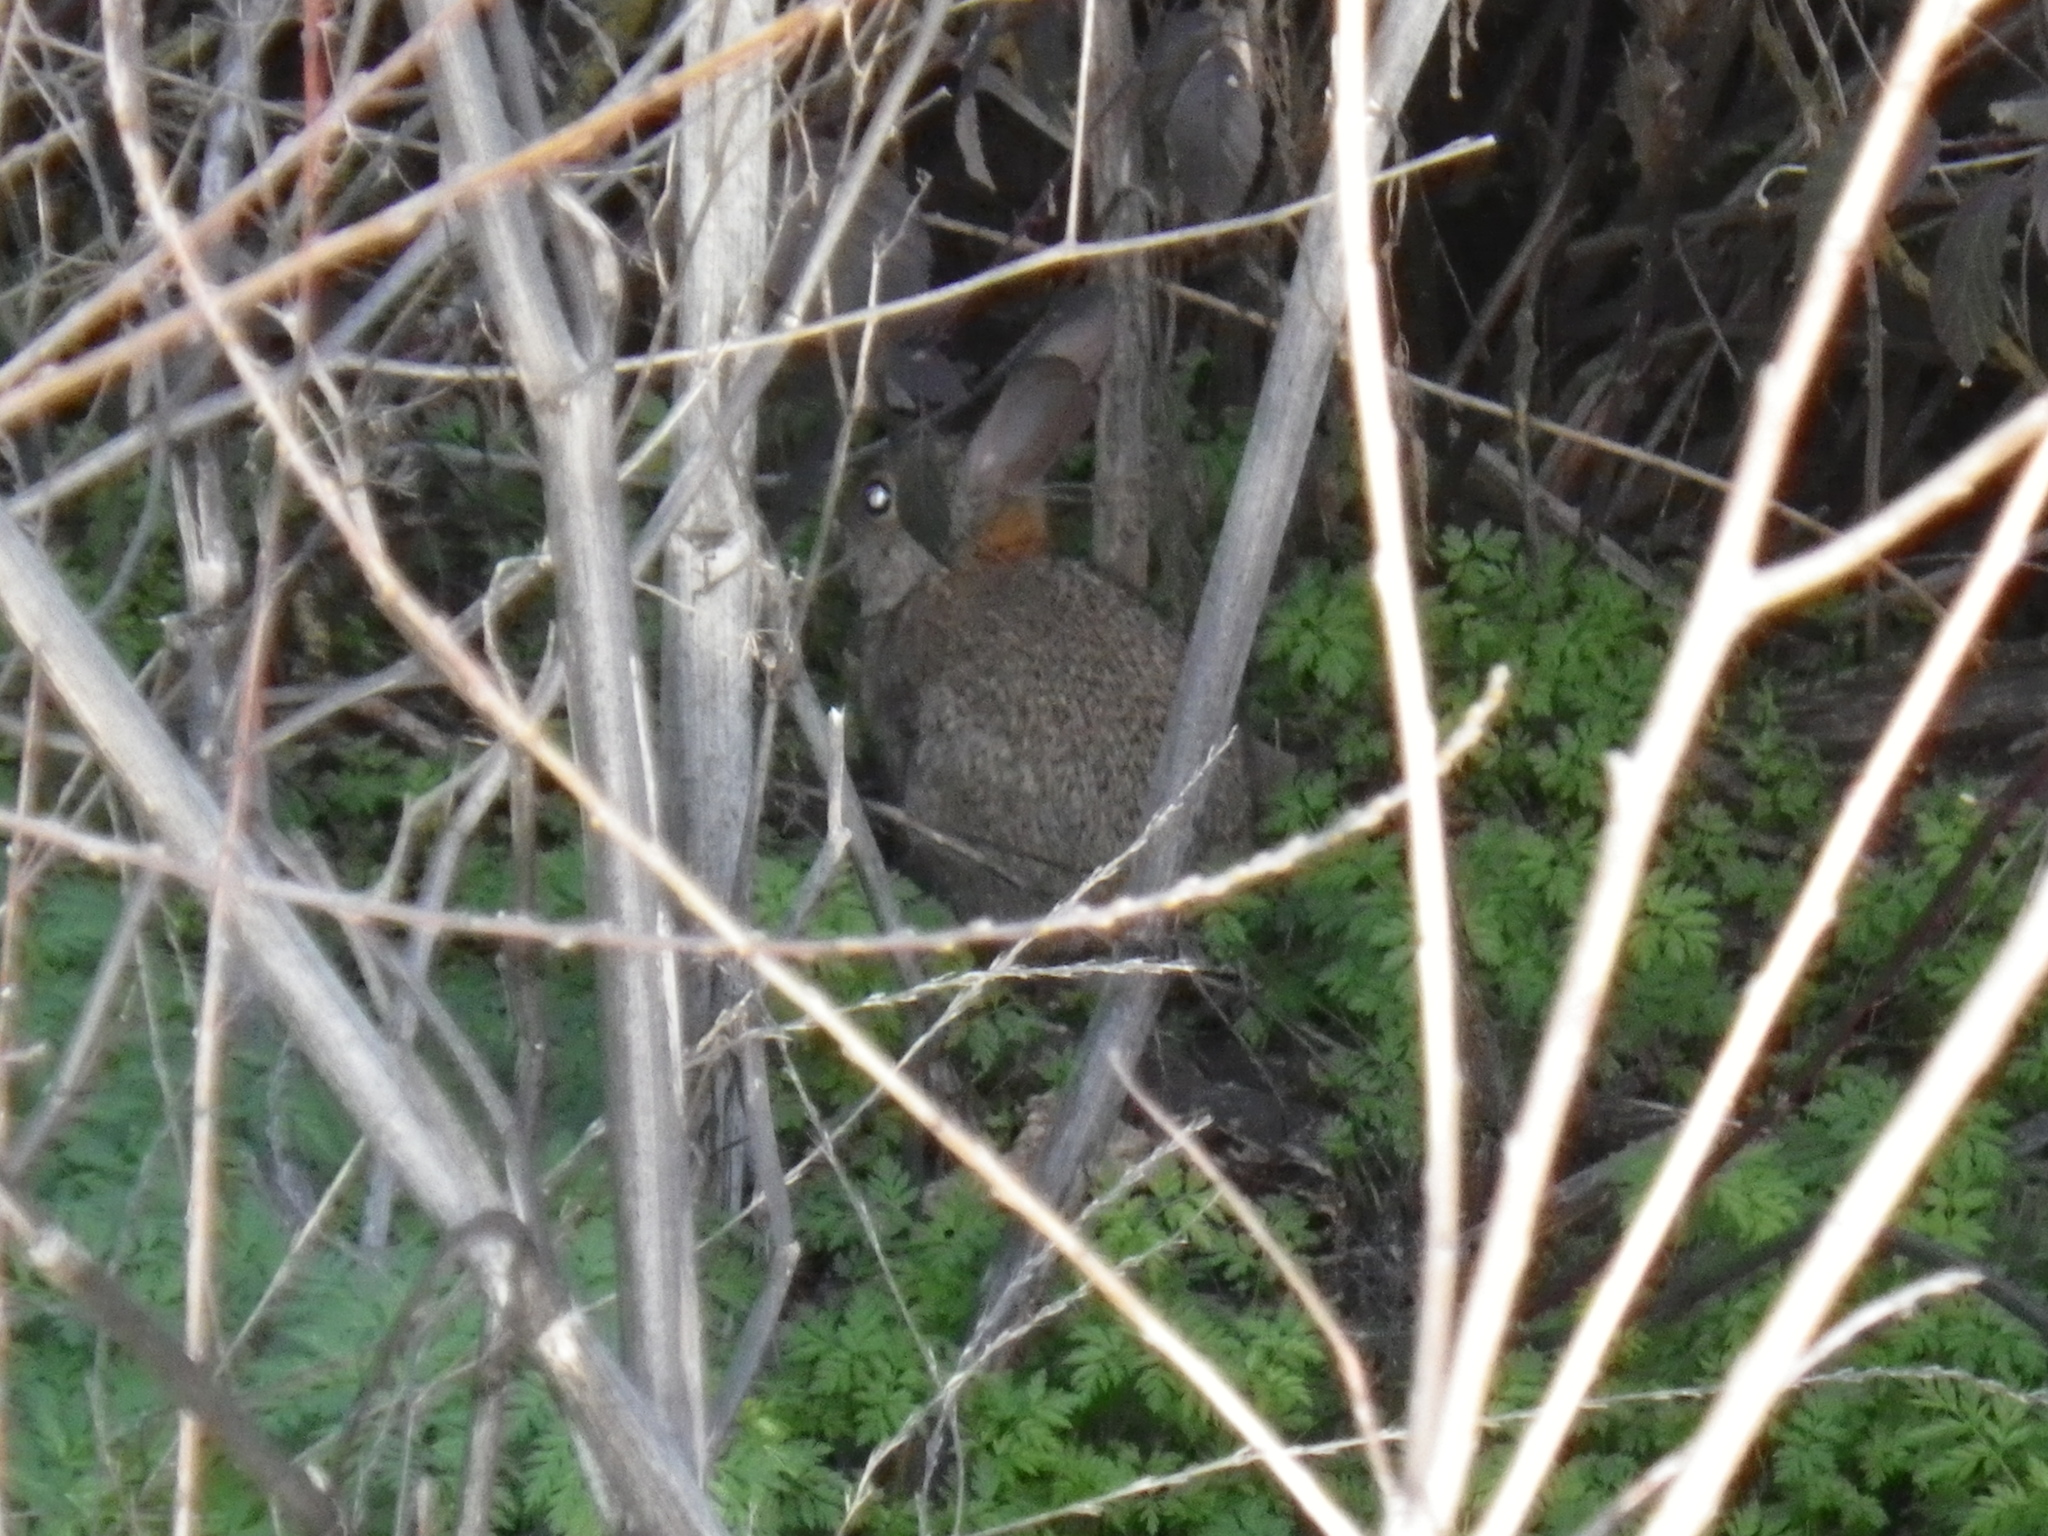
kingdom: Animalia
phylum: Chordata
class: Mammalia
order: Lagomorpha
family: Leporidae
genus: Sylvilagus
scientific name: Sylvilagus bachmani
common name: Brush rabbit
